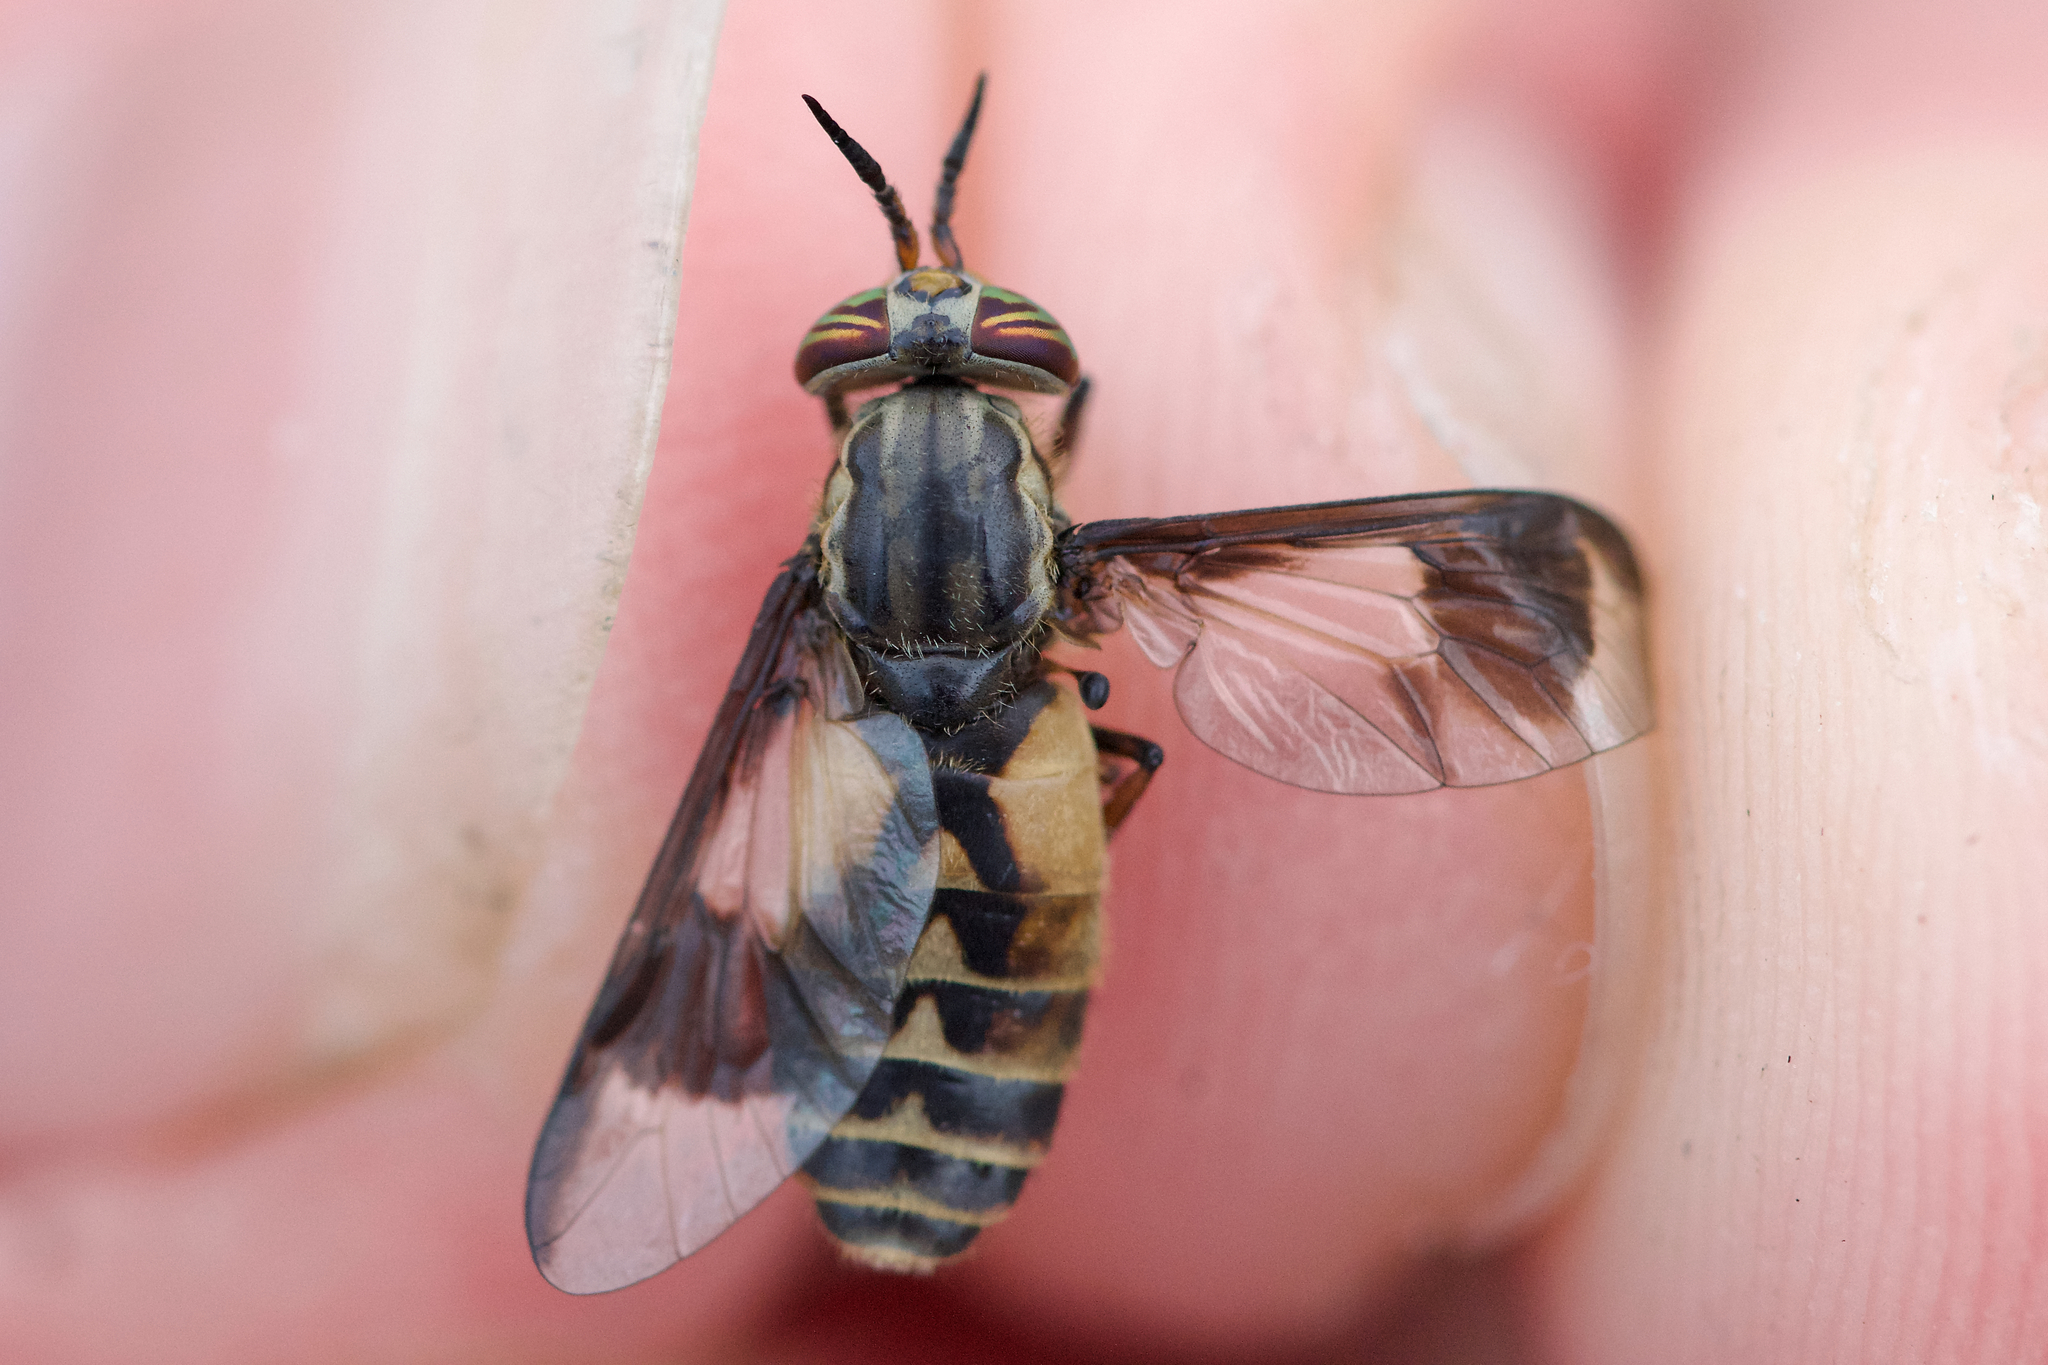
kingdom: Animalia
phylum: Arthropoda
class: Insecta
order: Diptera
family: Tabanidae
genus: Chrysops
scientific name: Chrysops sackeni
